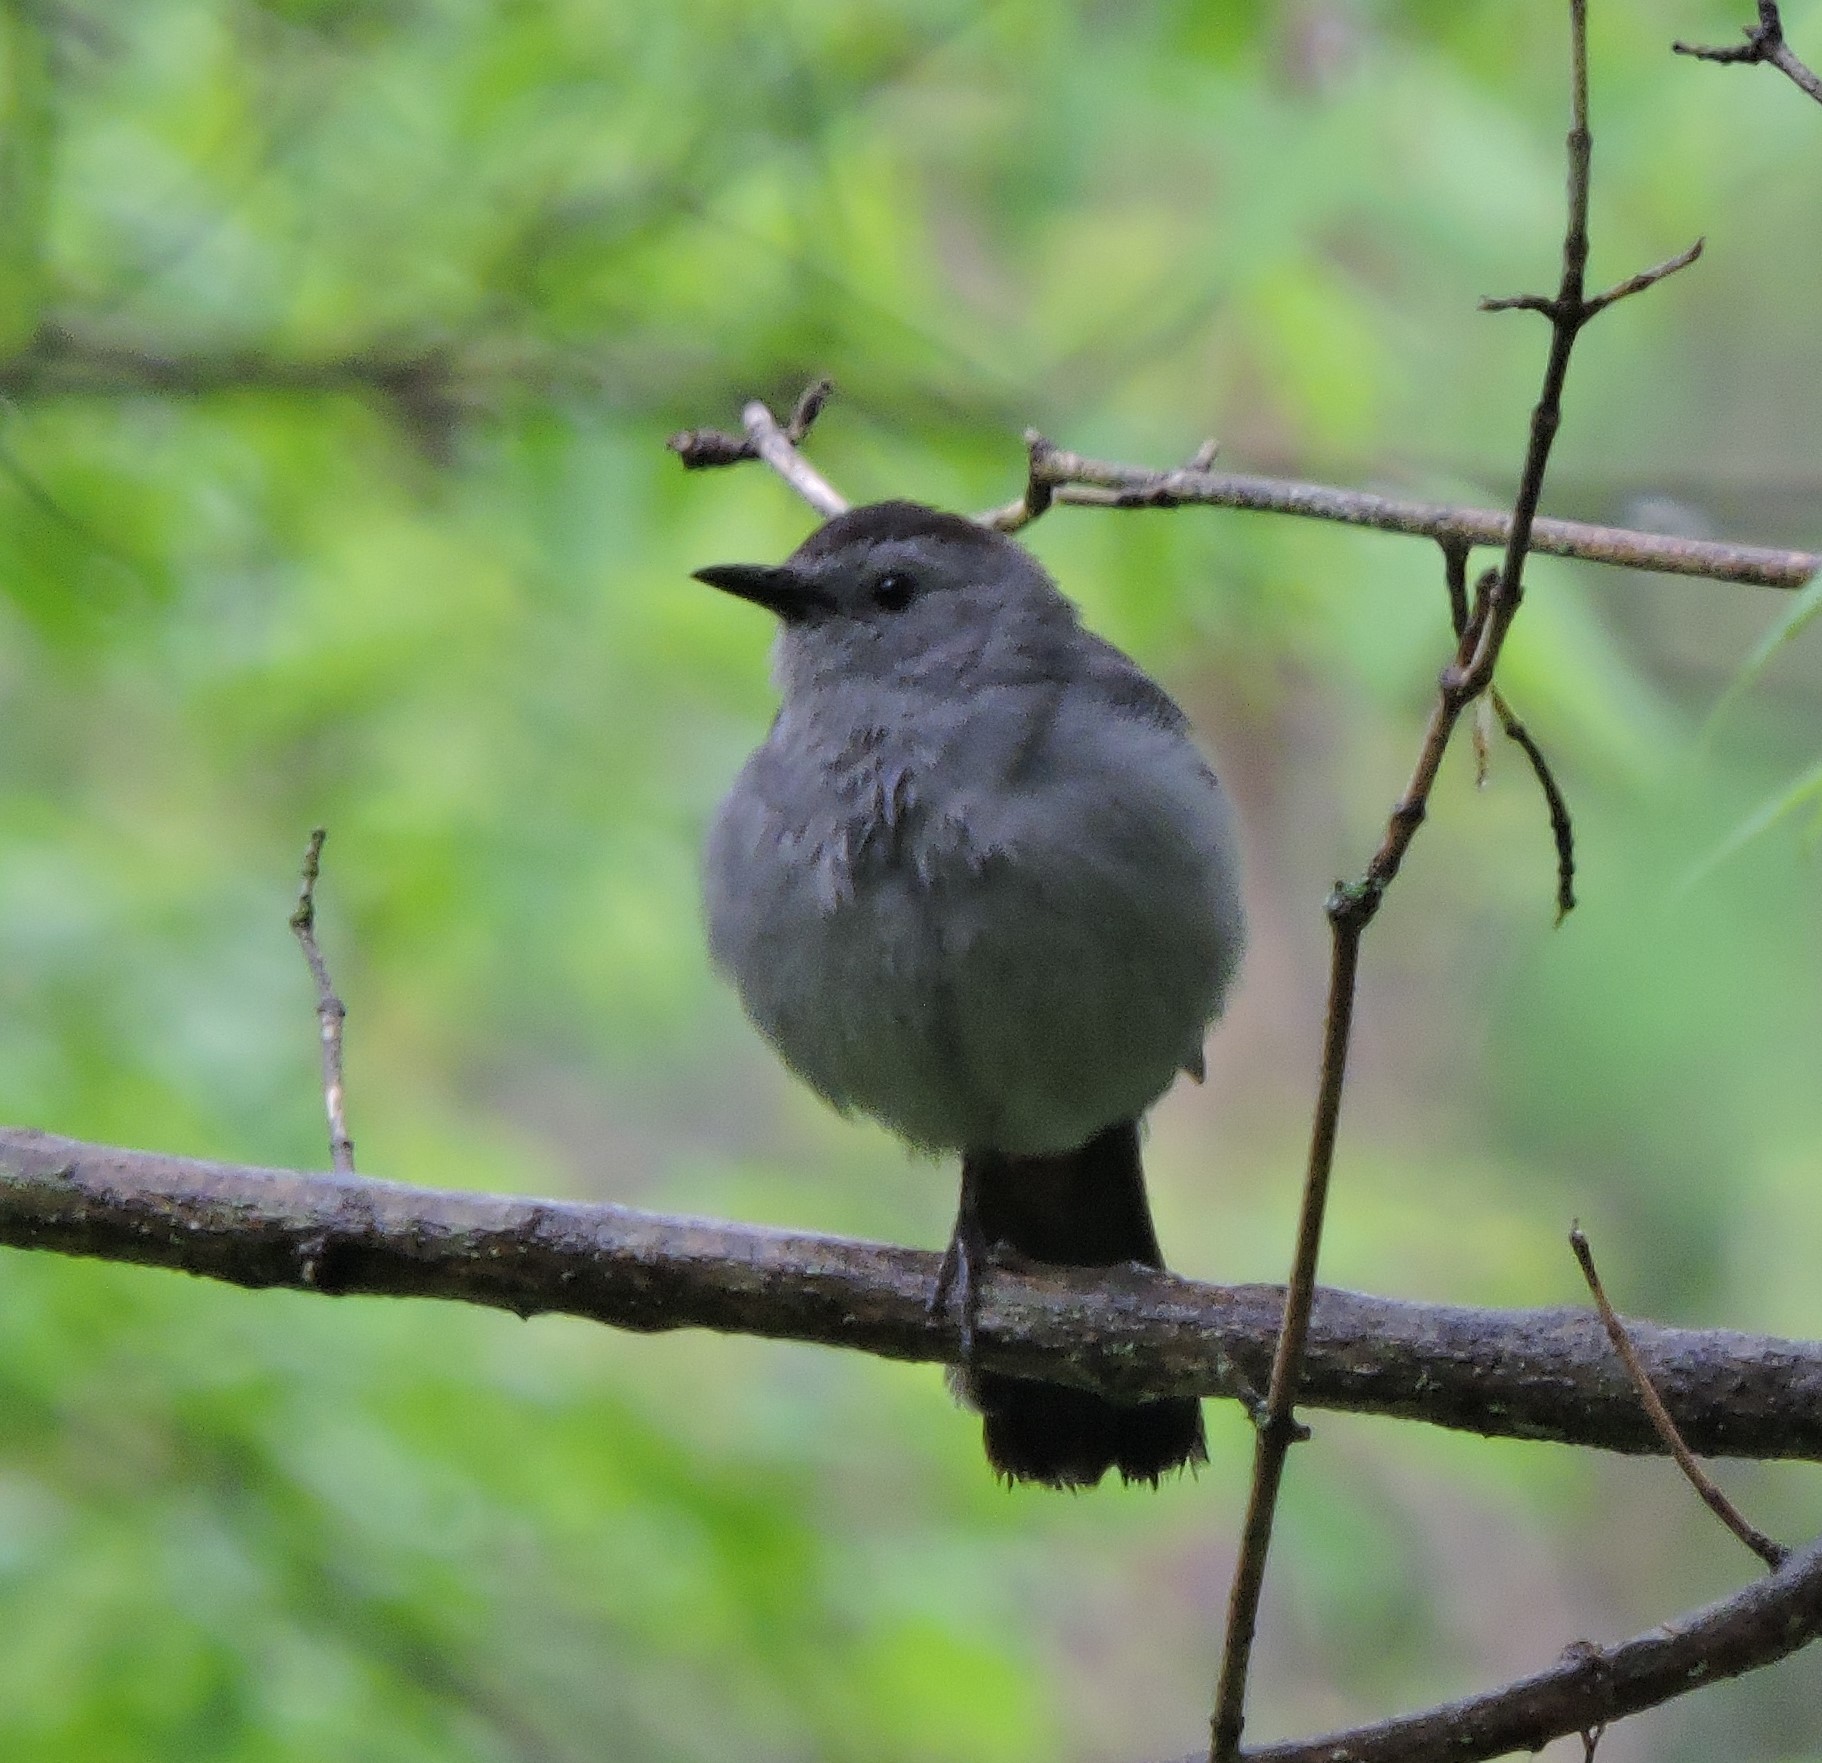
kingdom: Animalia
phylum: Chordata
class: Aves
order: Passeriformes
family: Mimidae
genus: Dumetella
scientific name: Dumetella carolinensis
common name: Gray catbird
